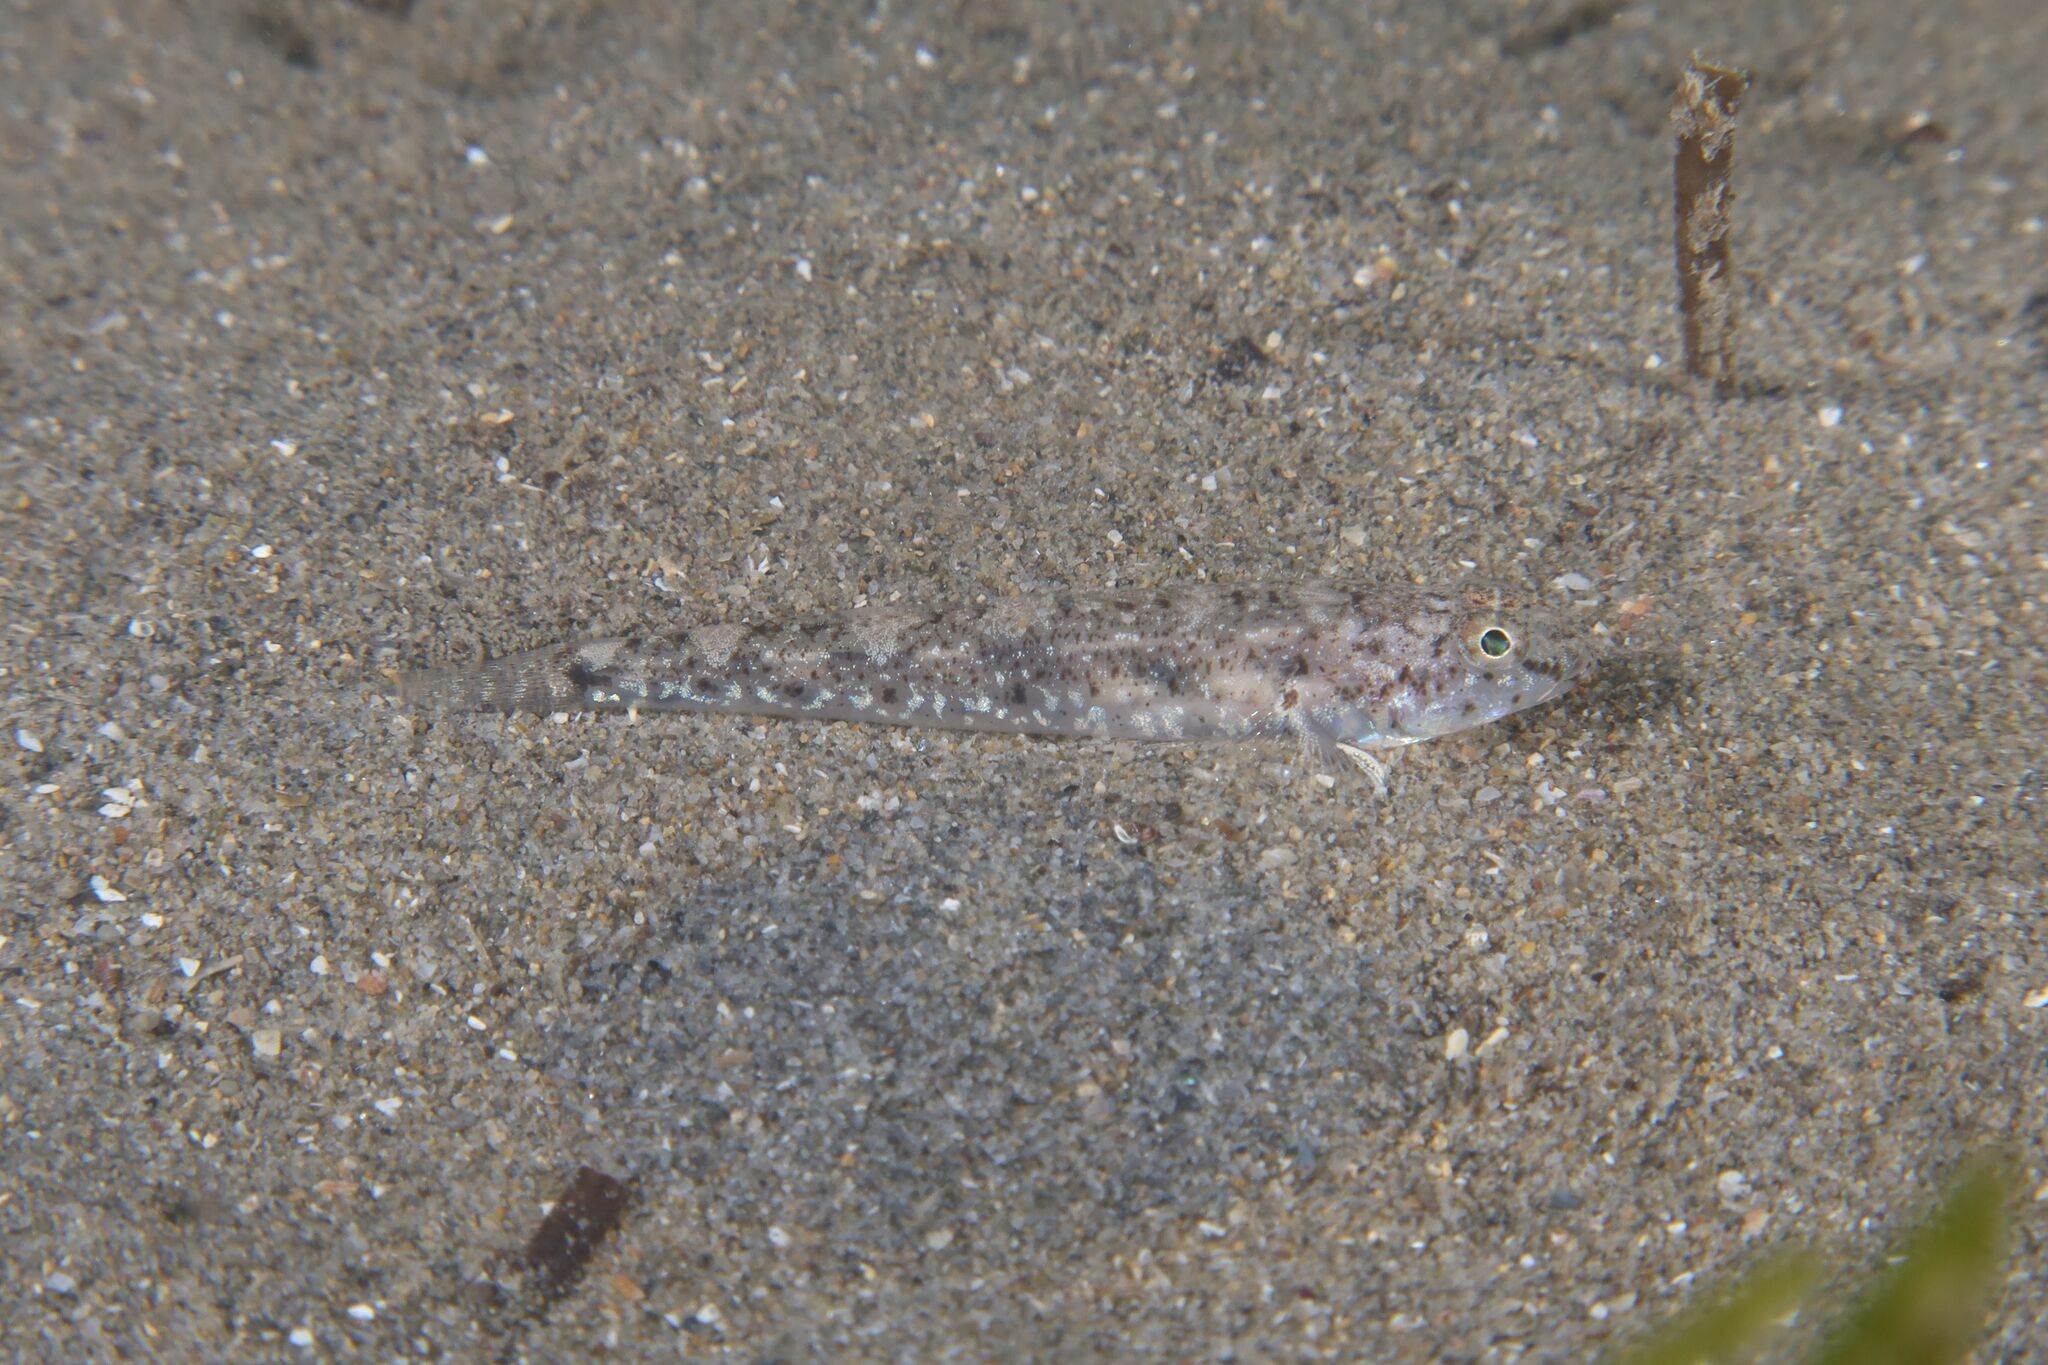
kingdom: Animalia
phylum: Chordata
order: Perciformes
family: Gobiidae
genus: Pomatoschistus
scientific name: Pomatoschistus marmoratus
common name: Marbled goby
